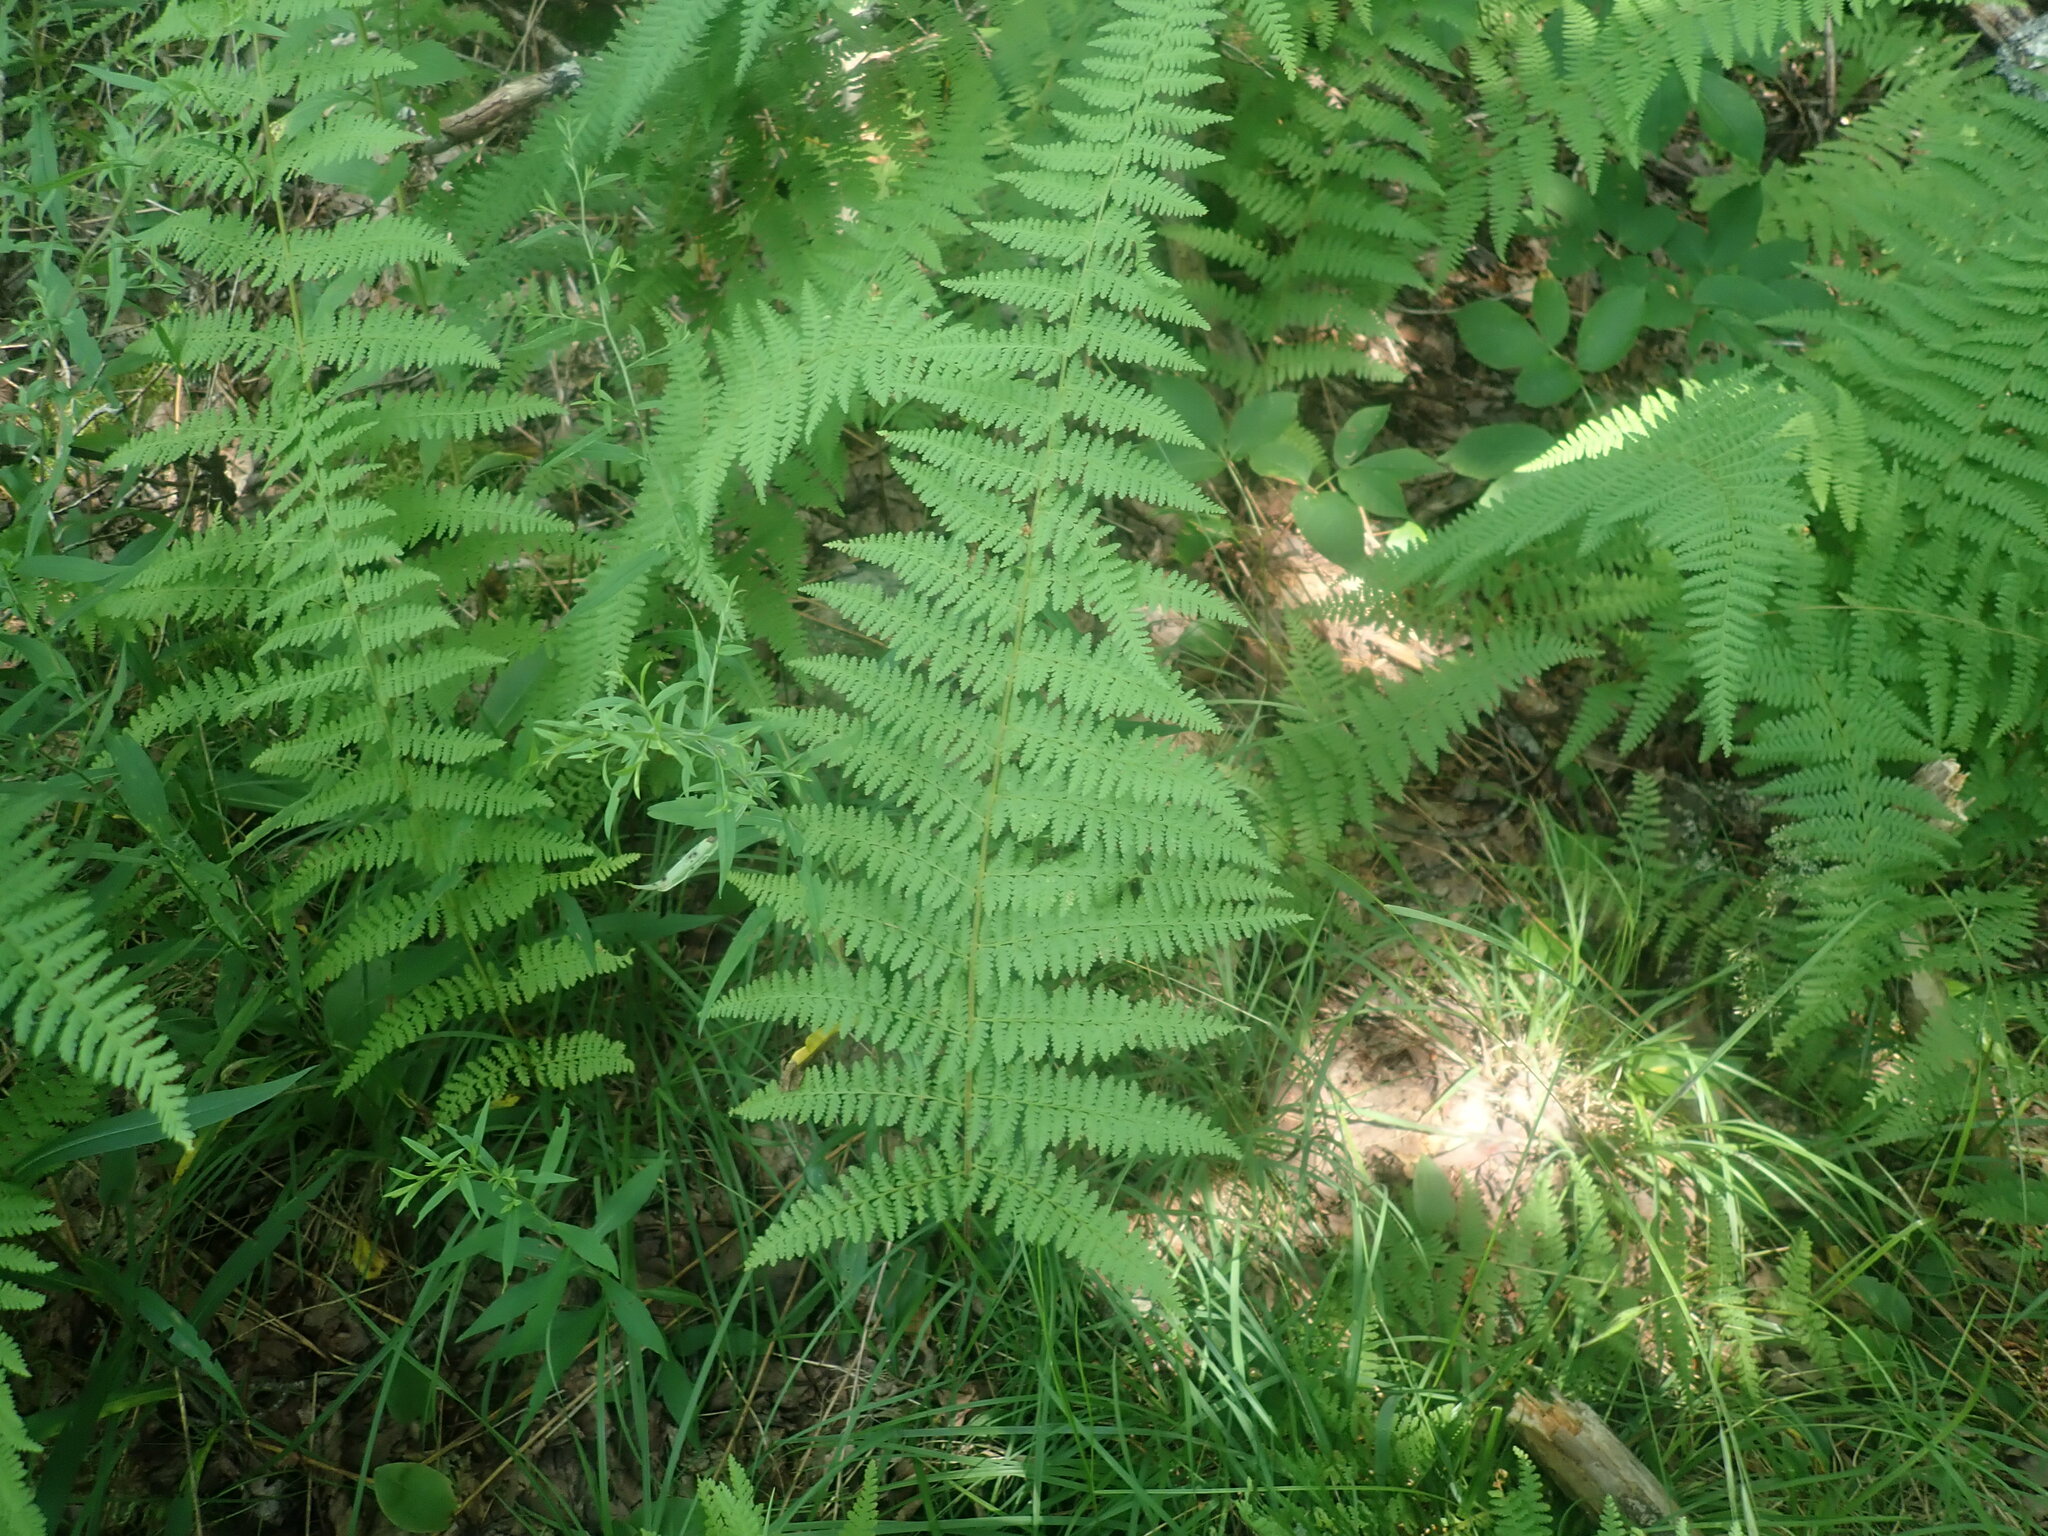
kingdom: Plantae
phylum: Tracheophyta
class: Polypodiopsida
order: Polypodiales
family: Dennstaedtiaceae
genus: Sitobolium
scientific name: Sitobolium punctilobum
